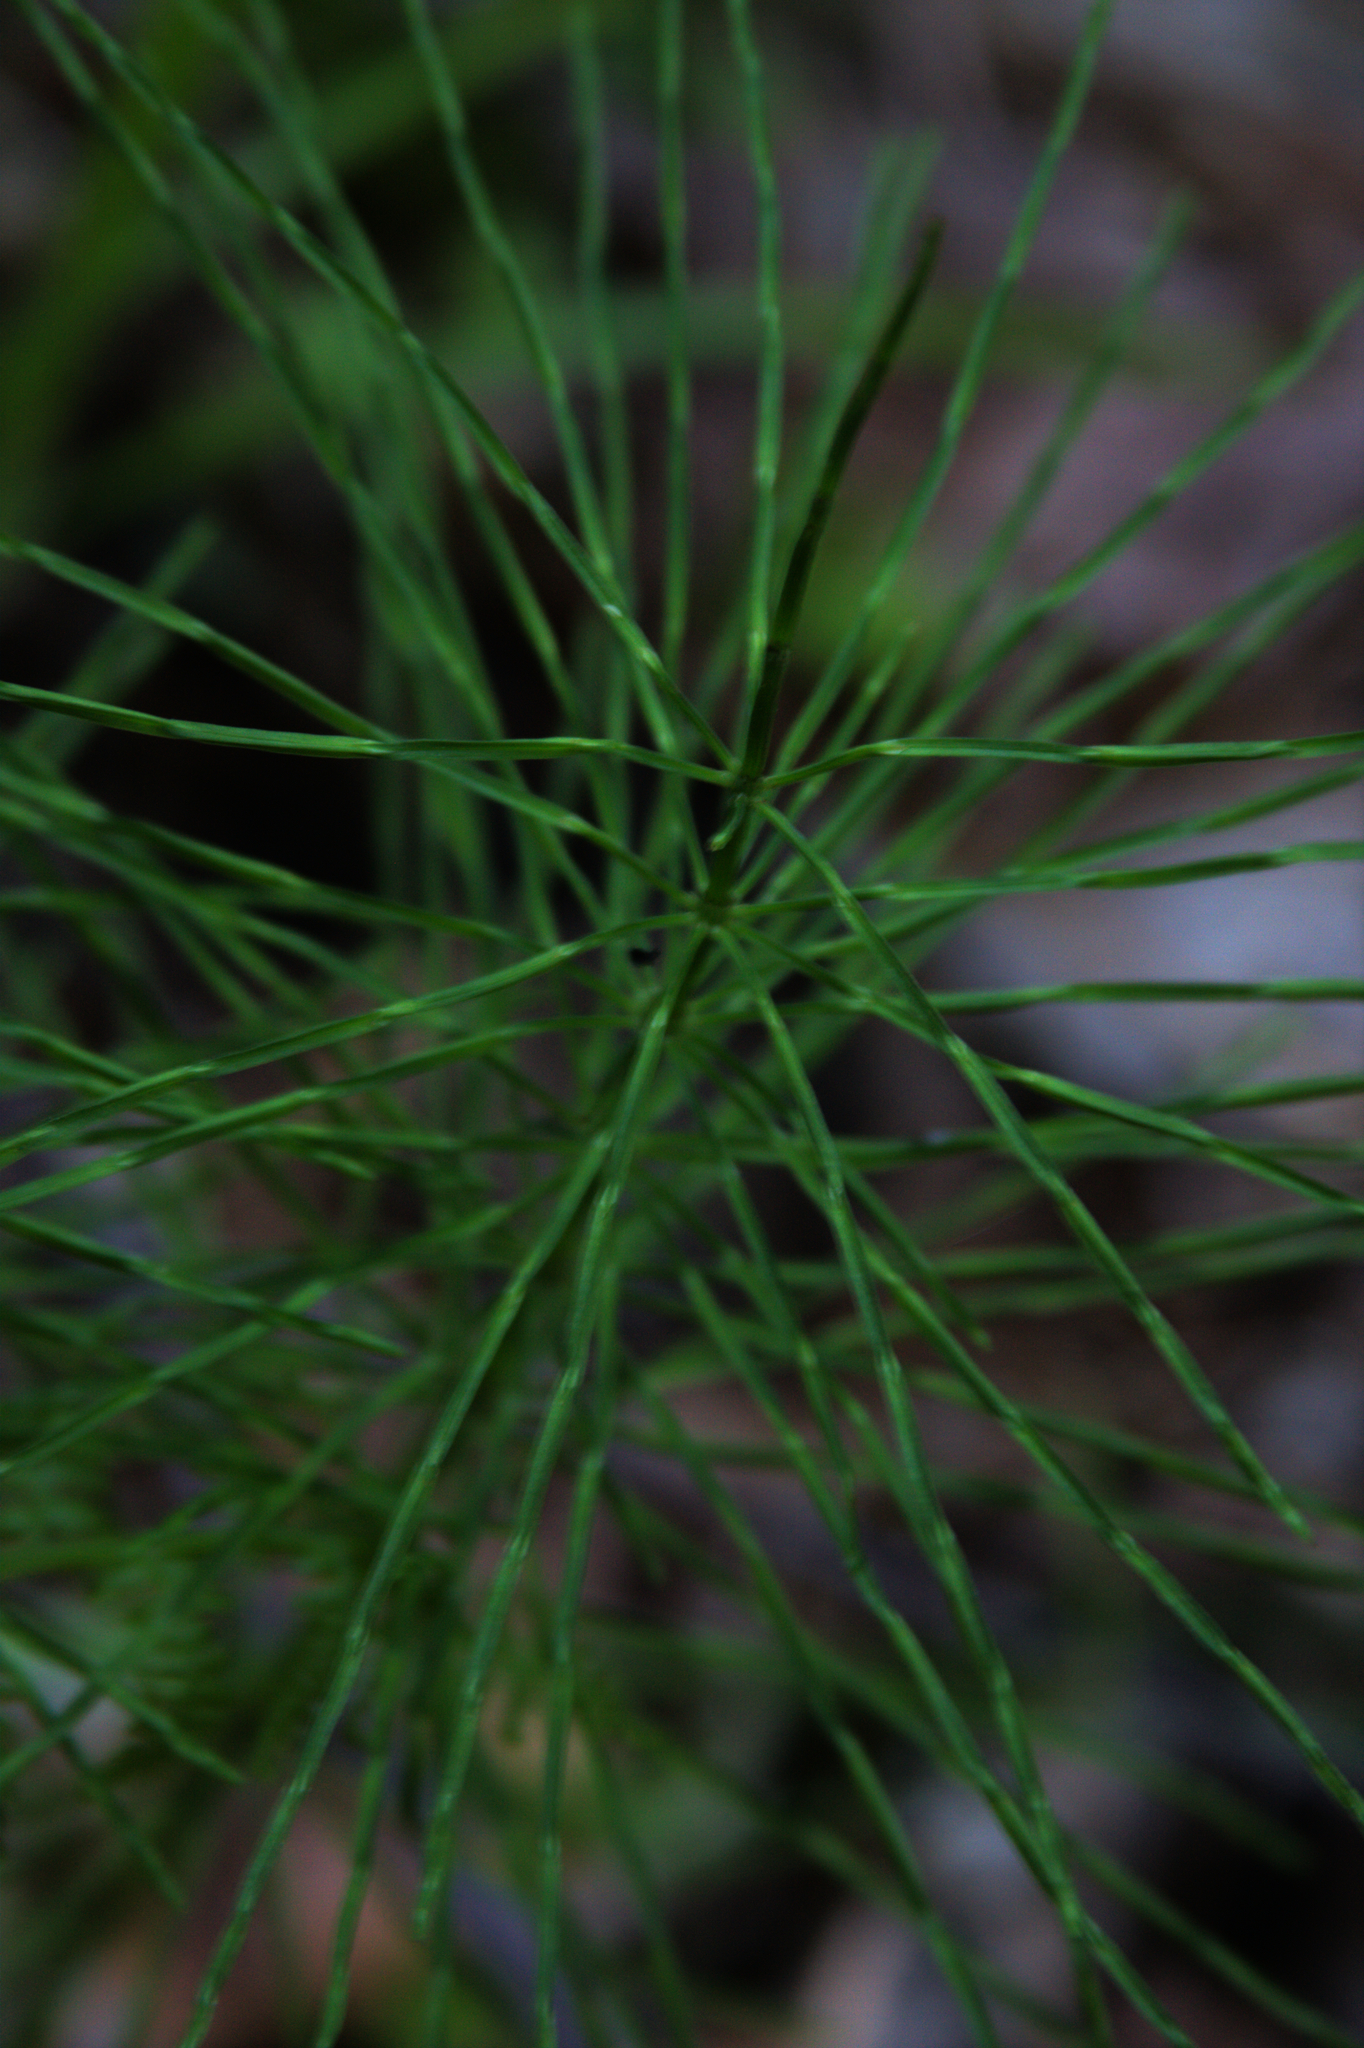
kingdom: Plantae
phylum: Tracheophyta
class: Polypodiopsida
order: Equisetales
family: Equisetaceae
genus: Equisetum
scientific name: Equisetum arvense
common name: Field horsetail
